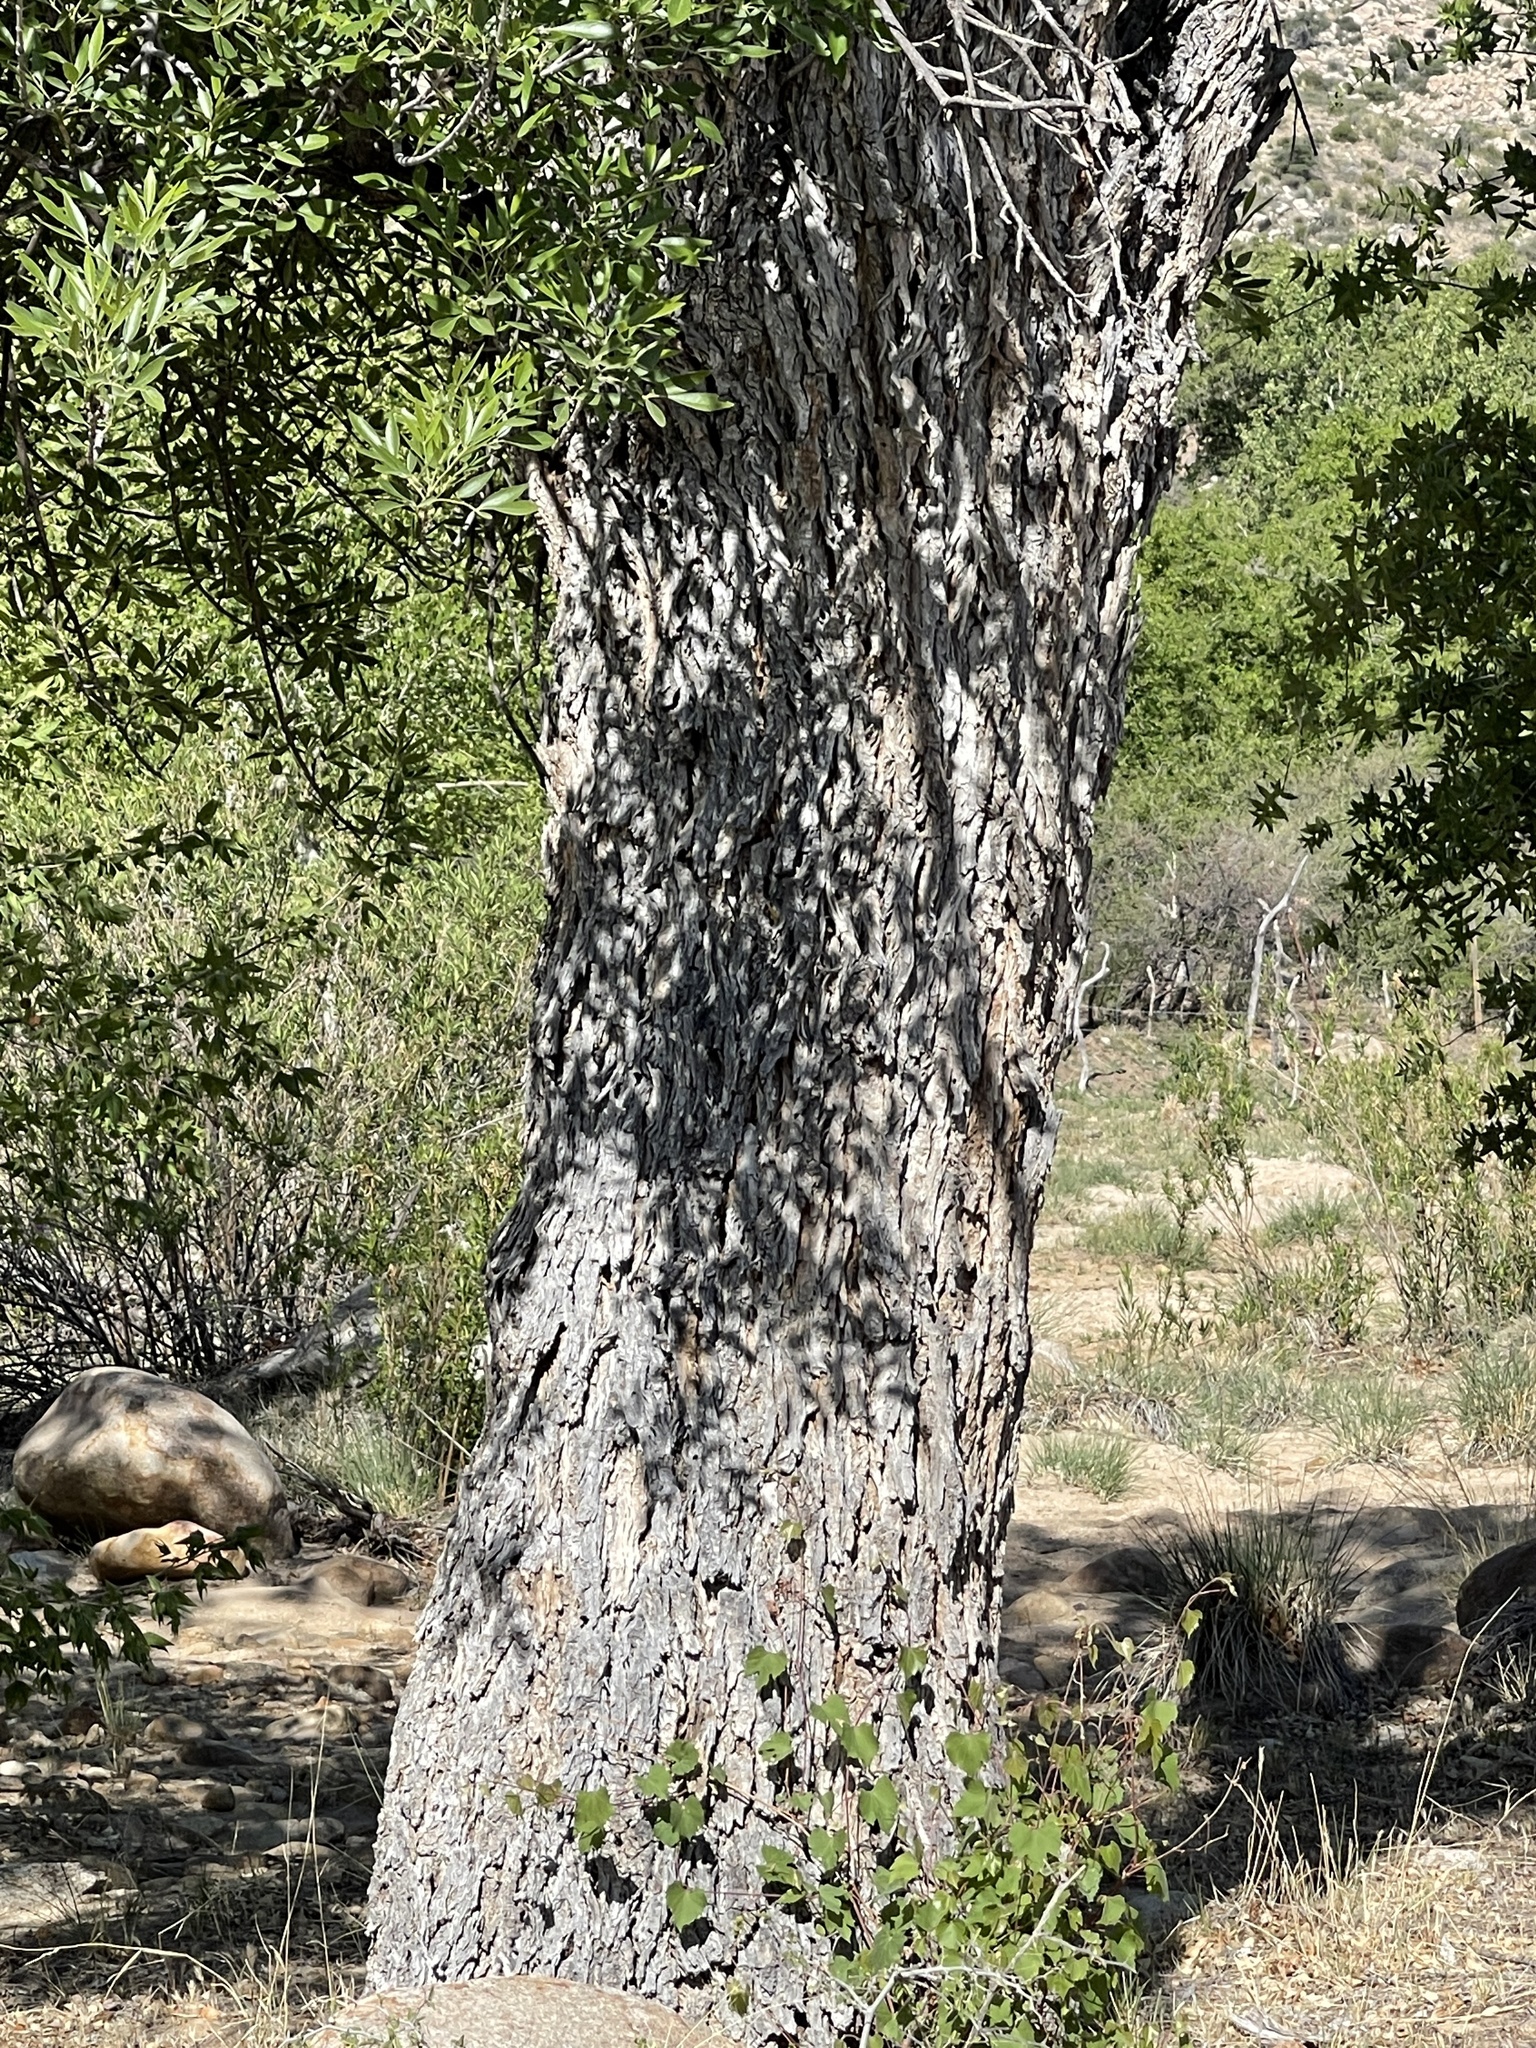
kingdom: Plantae
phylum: Tracheophyta
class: Magnoliopsida
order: Malpighiales
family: Salicaceae
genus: Salix
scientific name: Salix gooddingii
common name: Goodding's willow
